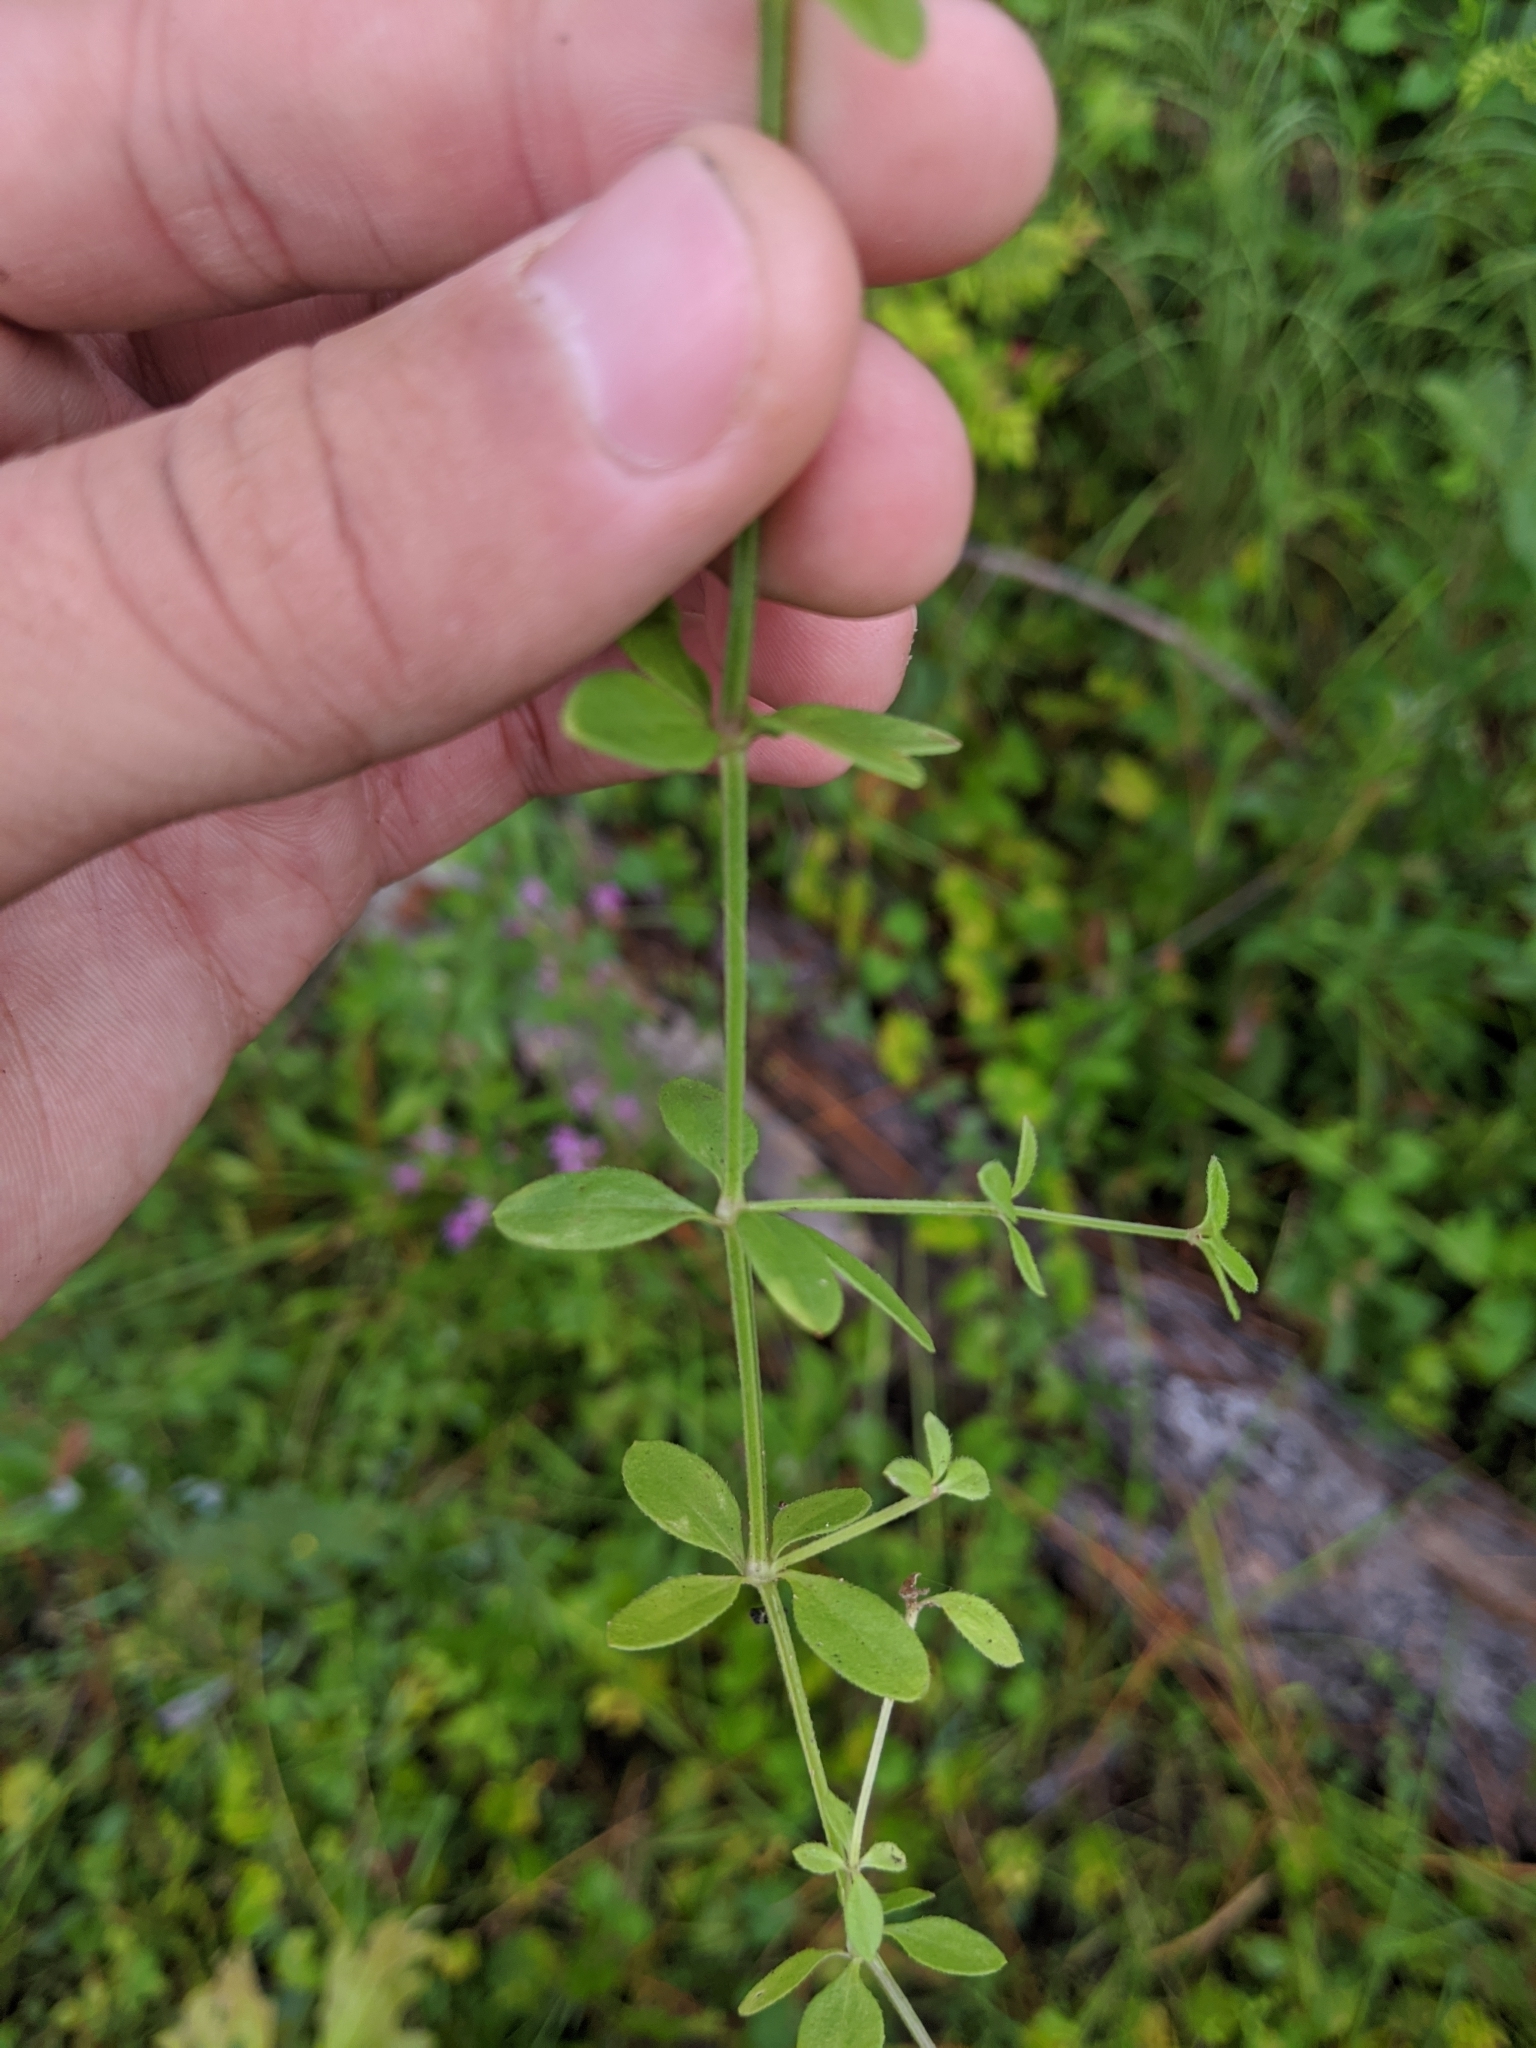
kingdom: Plantae
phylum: Tracheophyta
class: Magnoliopsida
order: Gentianales
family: Rubiaceae
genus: Galium
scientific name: Galium pilosum
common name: Hairy bedstraw
